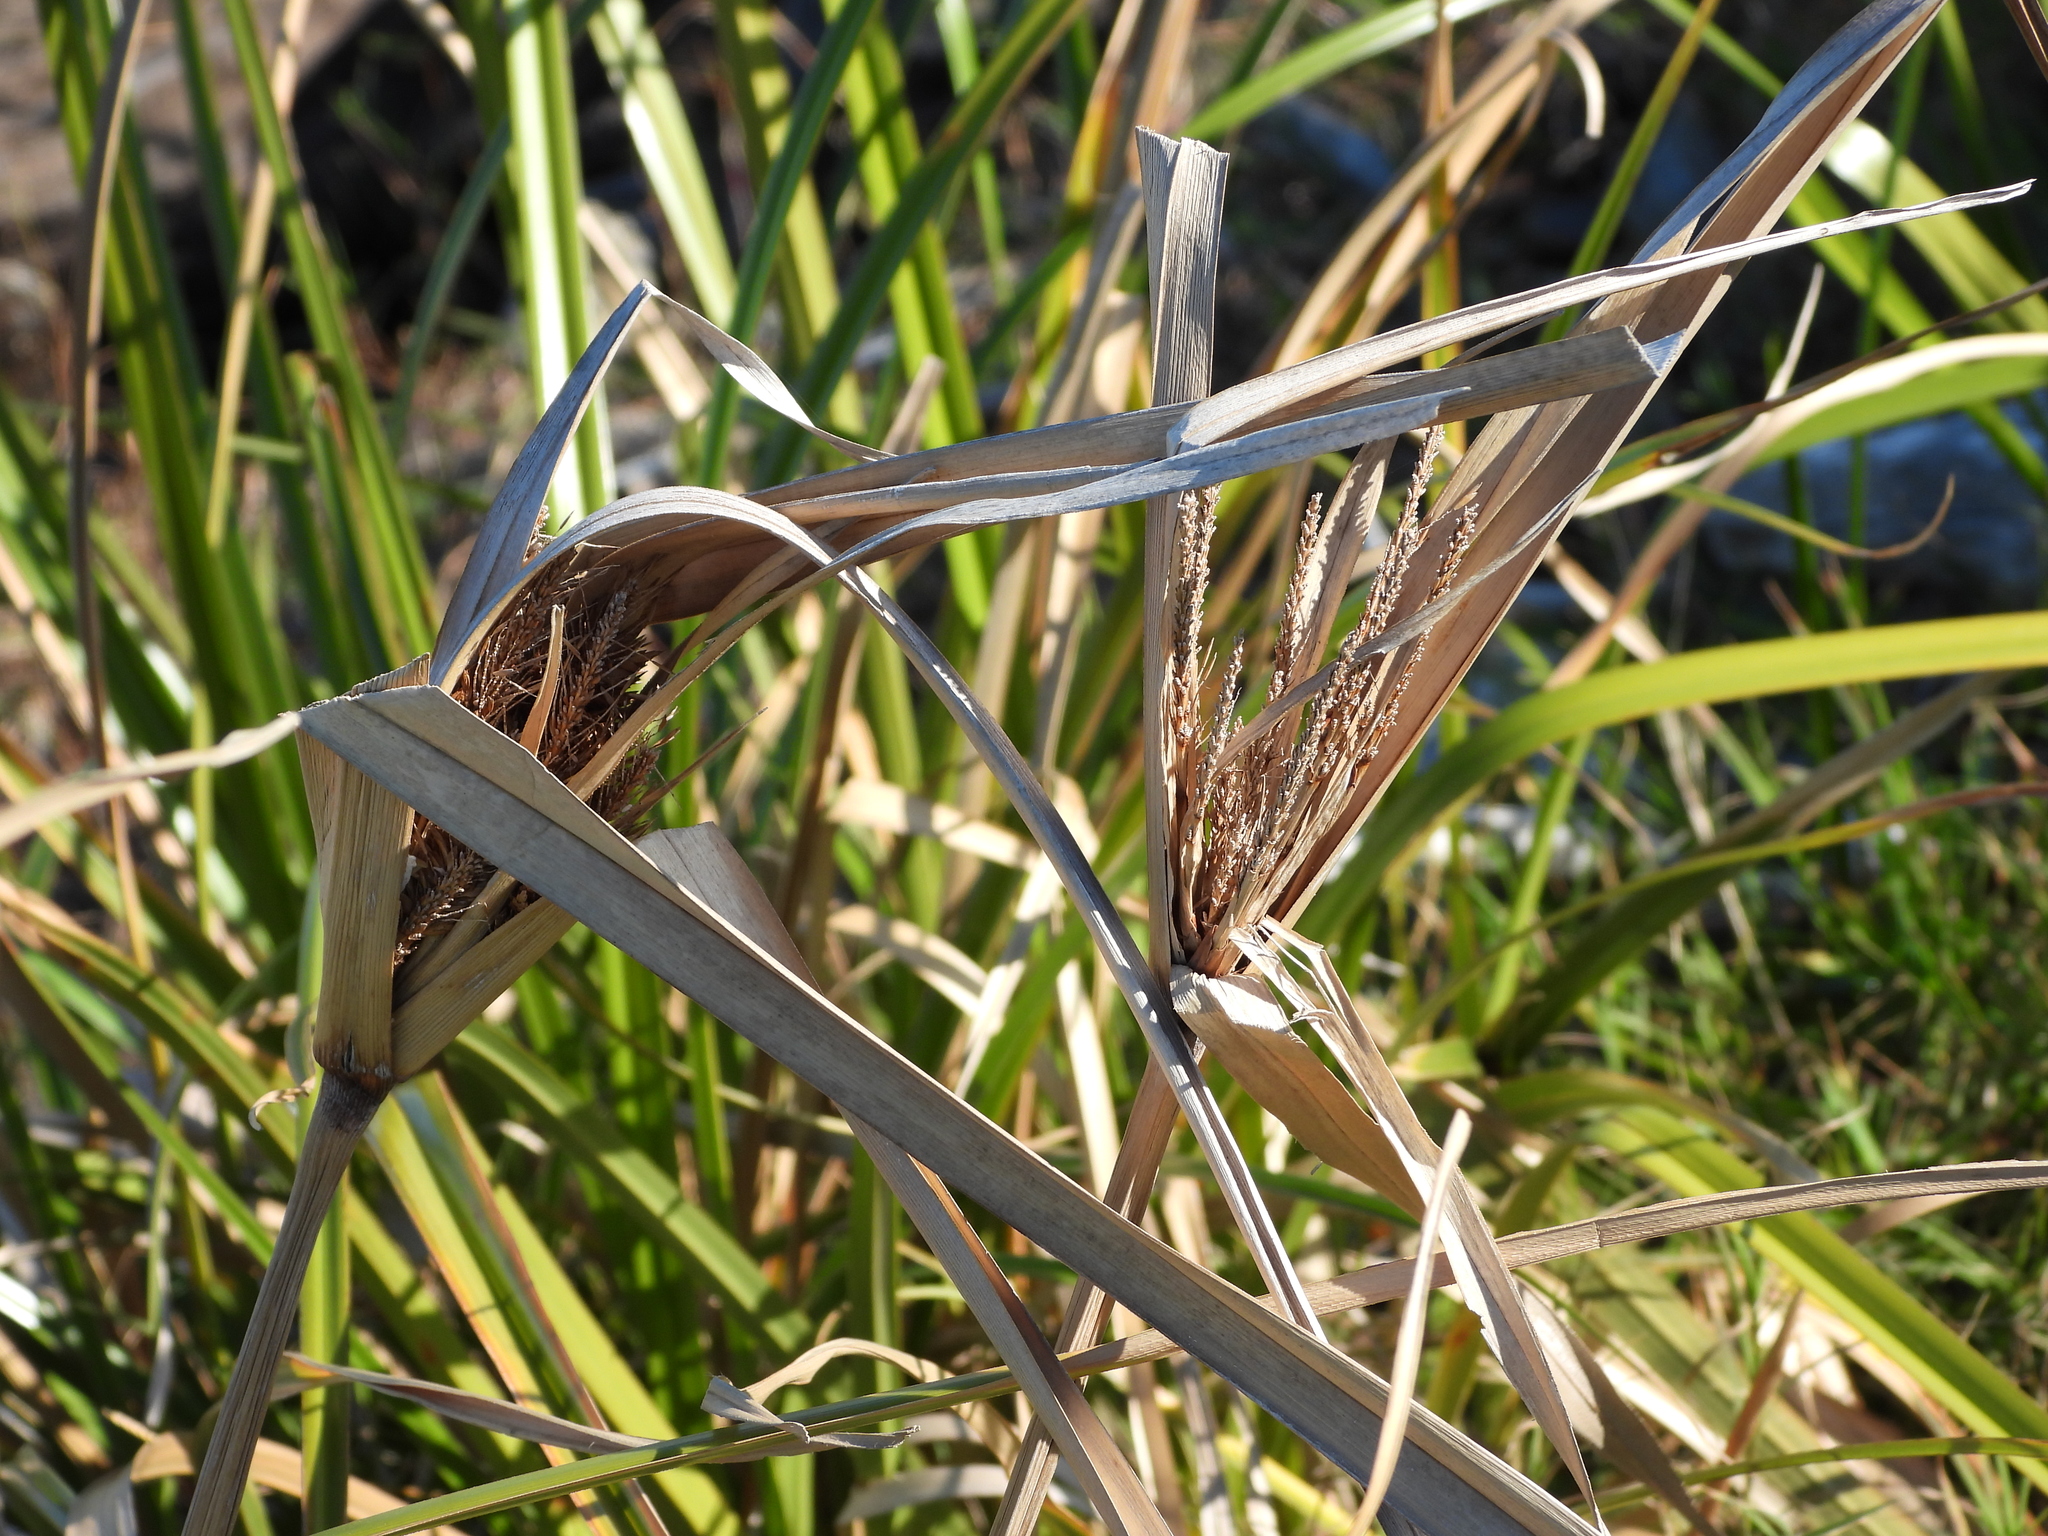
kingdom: Plantae
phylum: Tracheophyta
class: Liliopsida
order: Poales
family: Cyperaceae
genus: Cyperus
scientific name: Cyperus ustulatus
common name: Giant umbrella-sedge
